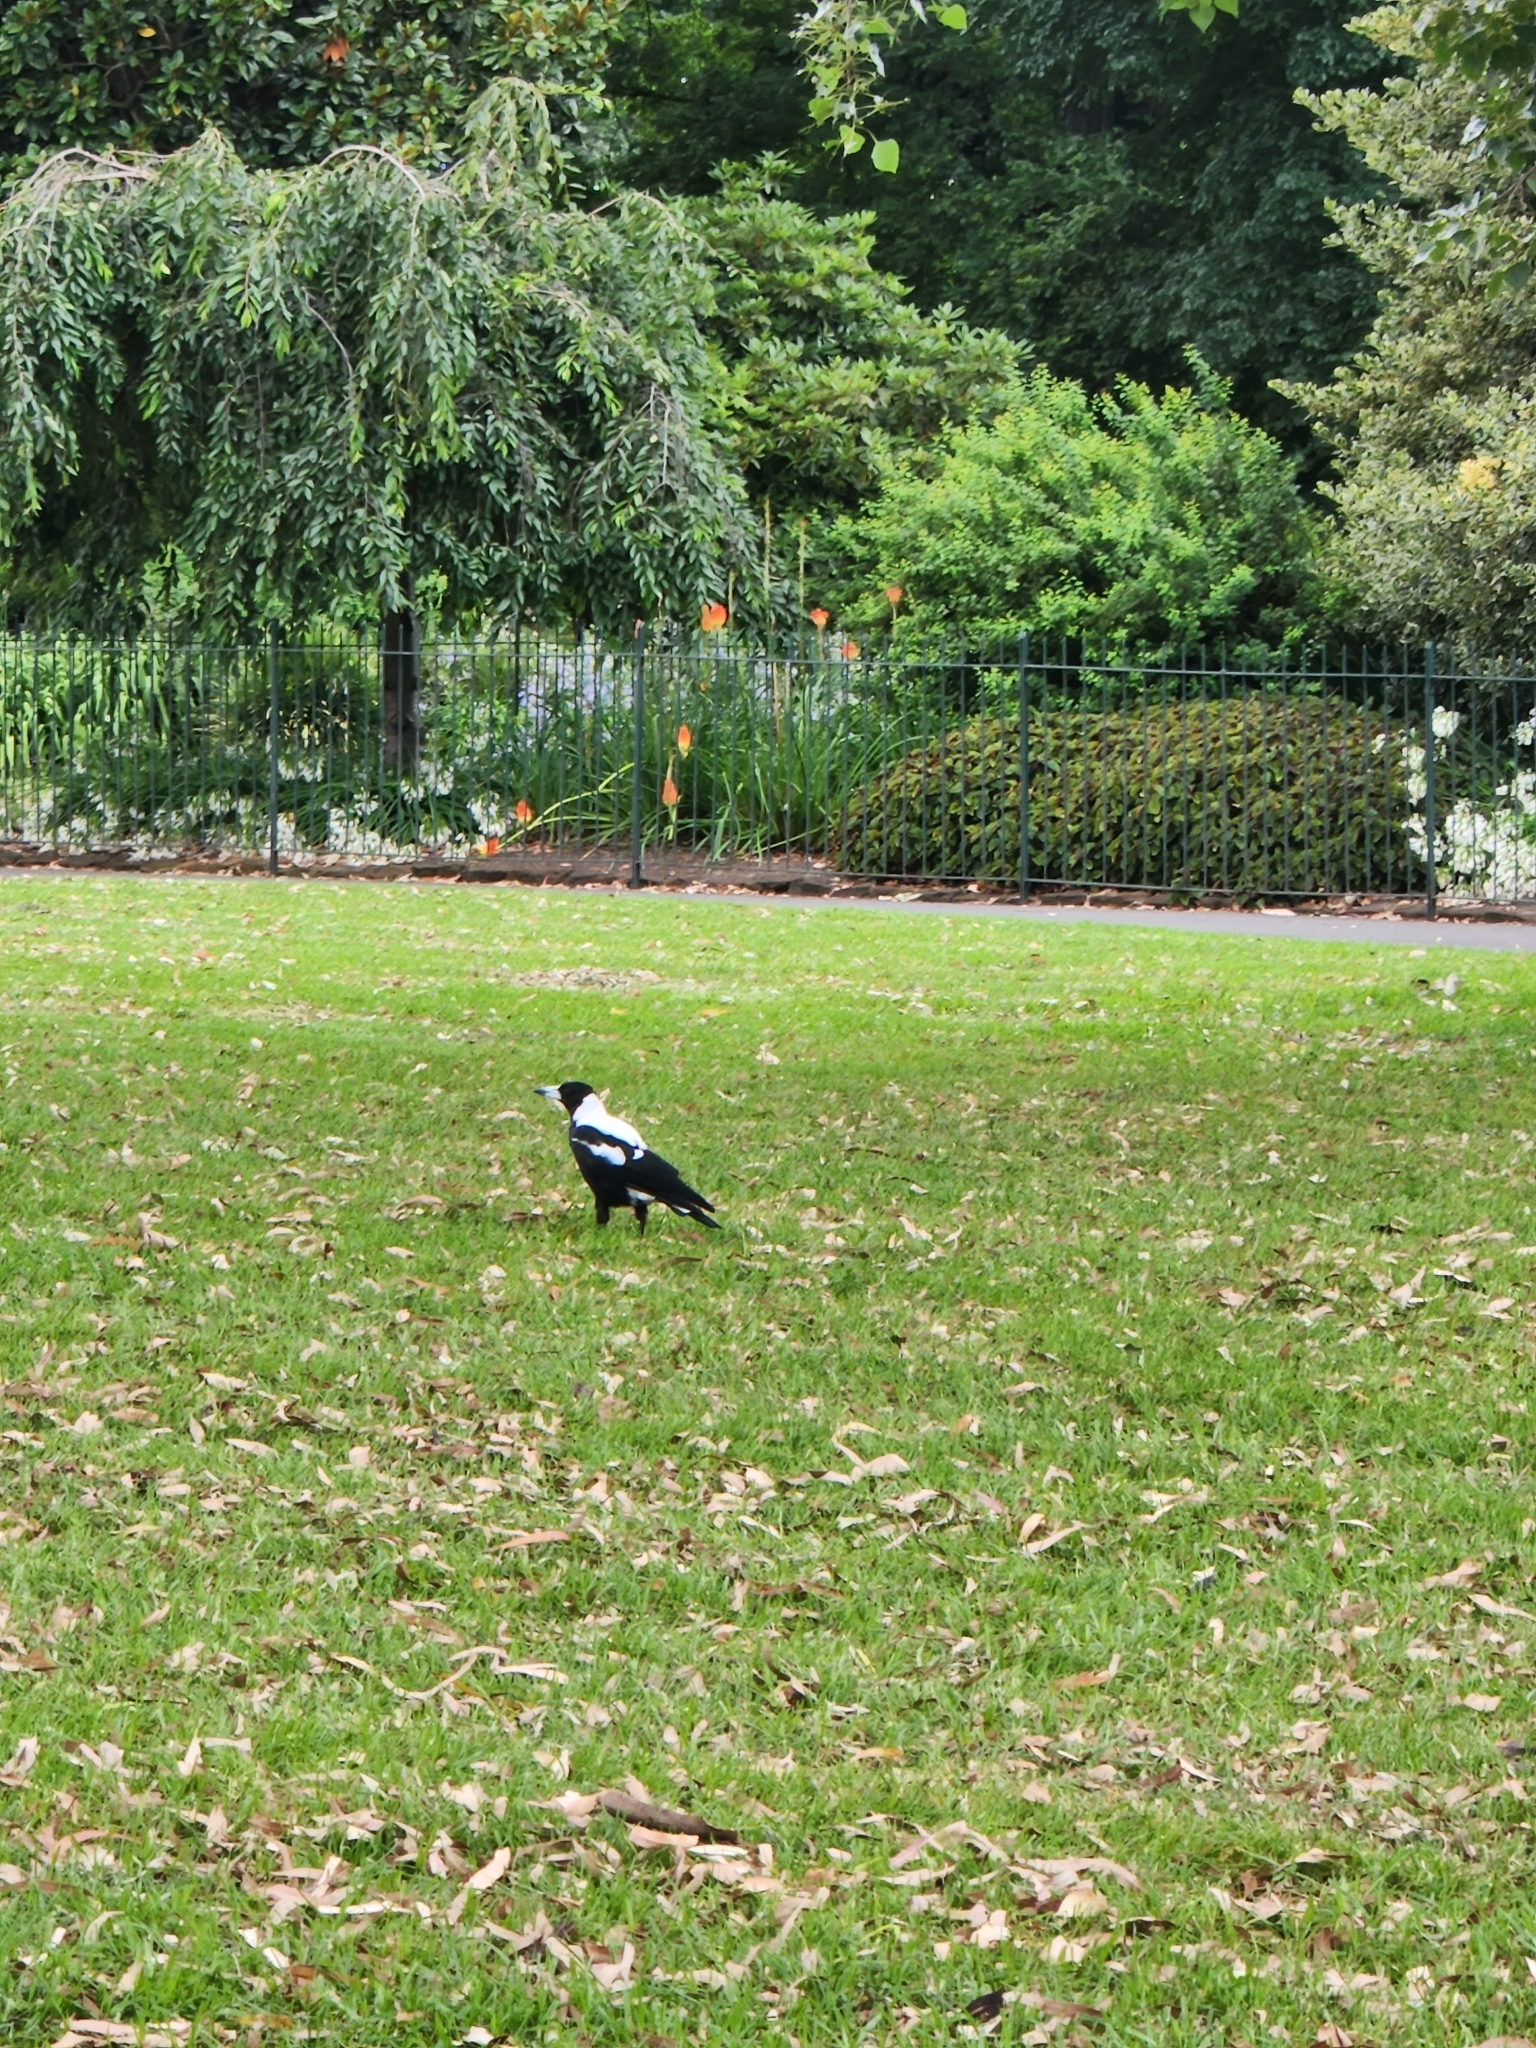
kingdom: Animalia
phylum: Chordata
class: Aves
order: Passeriformes
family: Cracticidae
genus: Gymnorhina
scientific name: Gymnorhina tibicen
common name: Australian magpie
